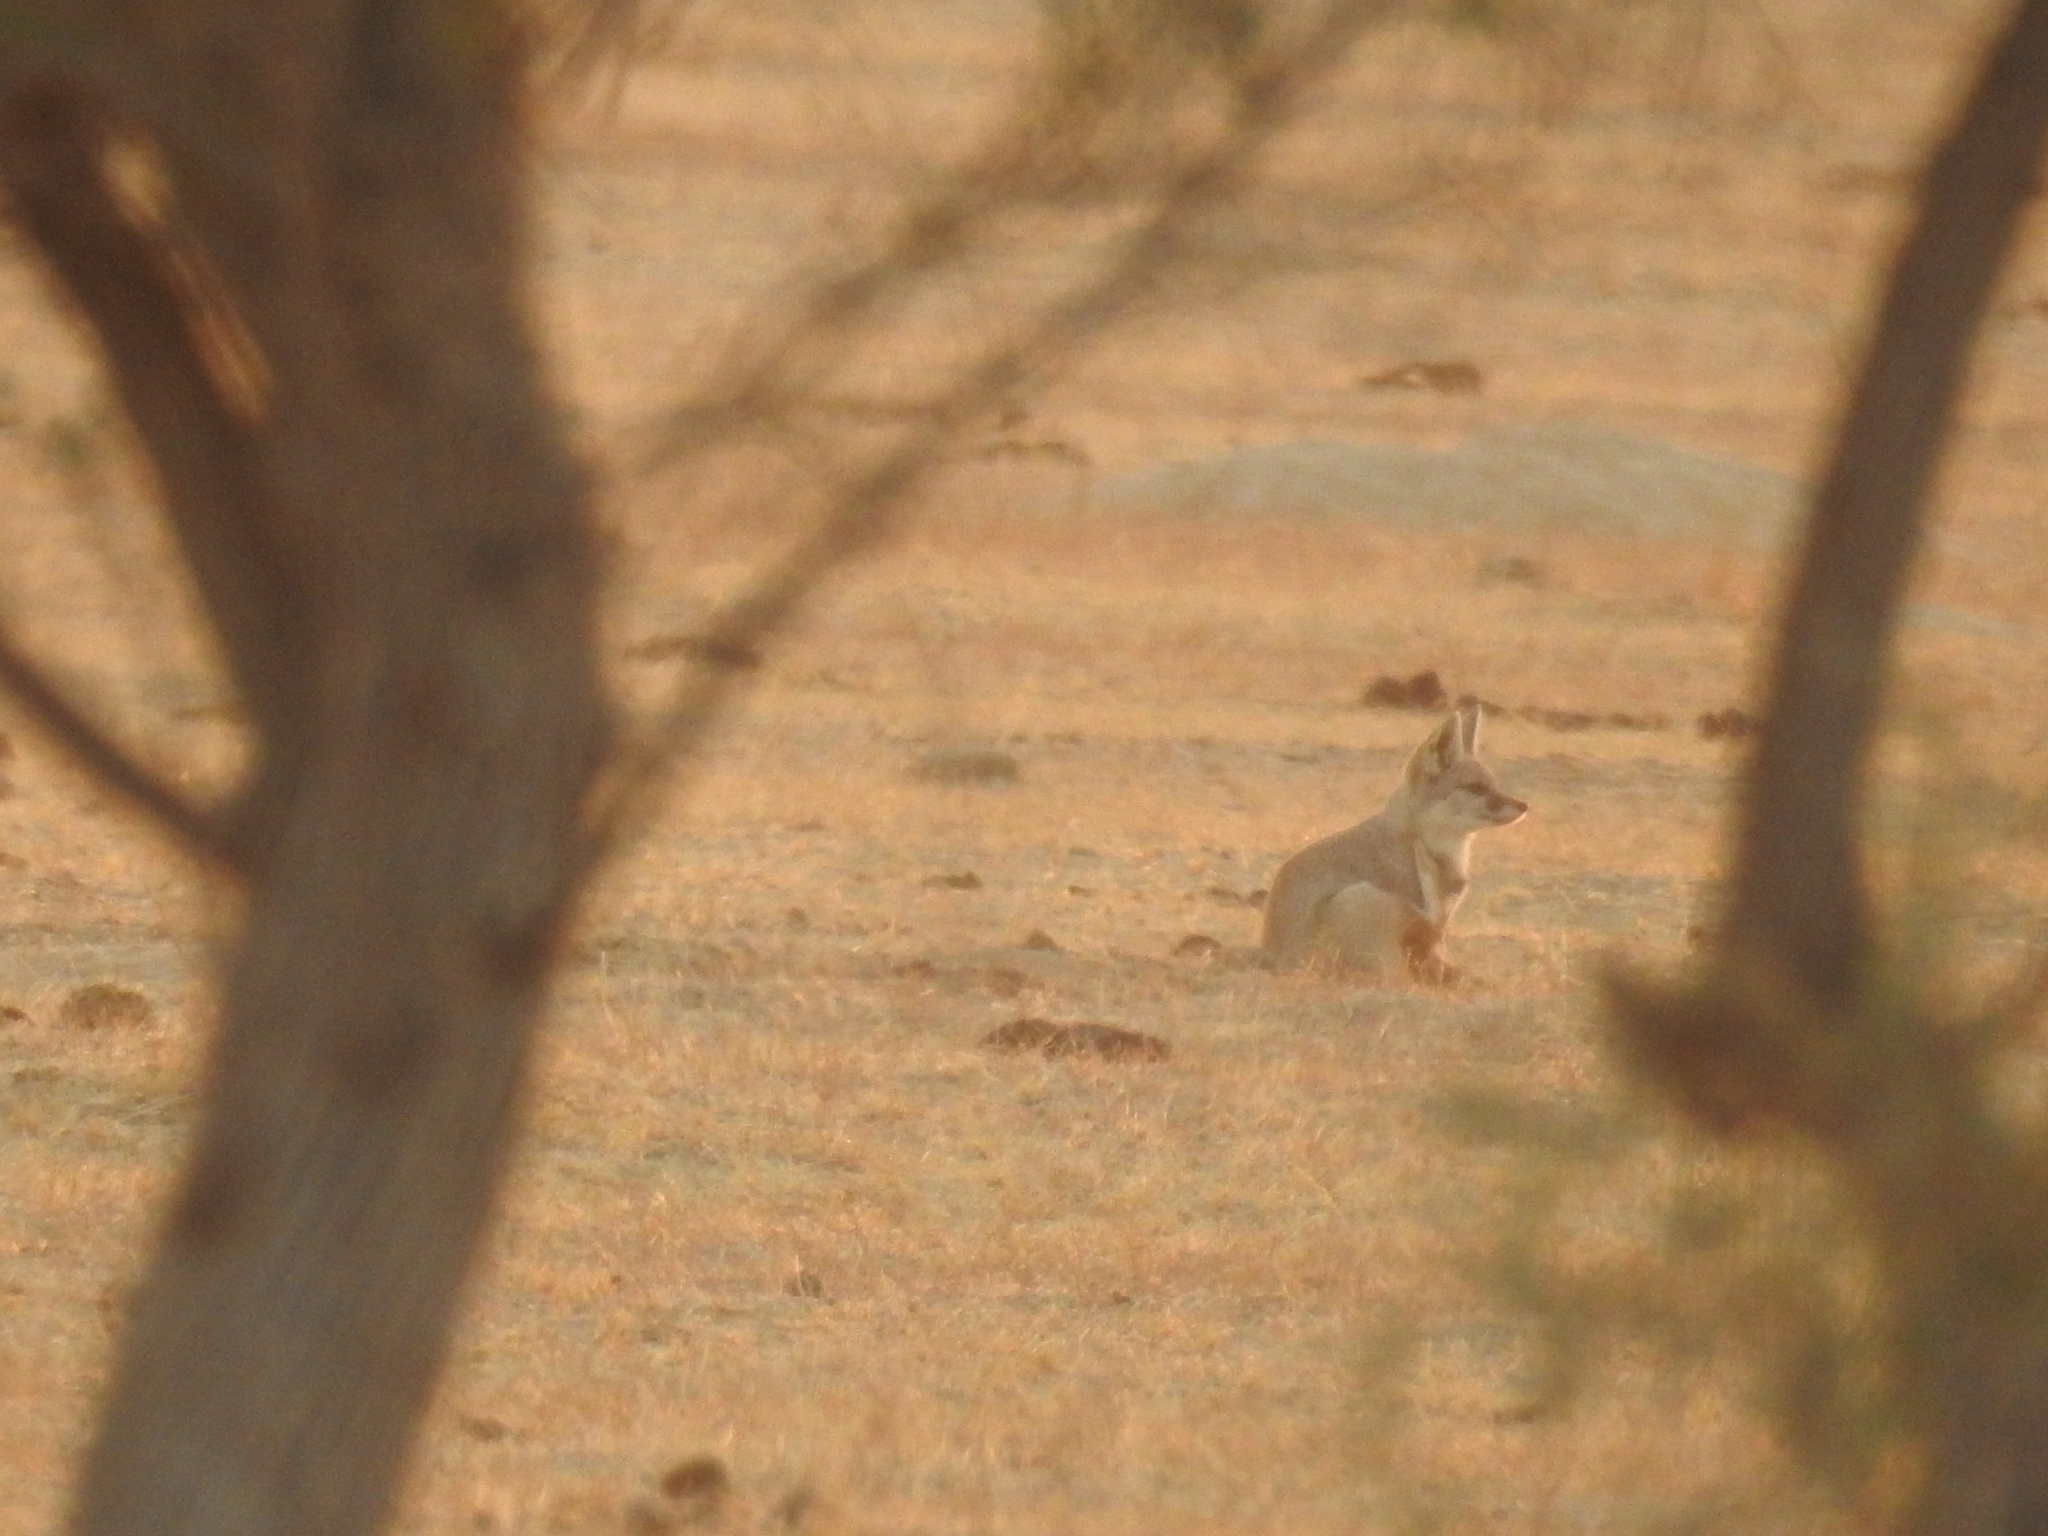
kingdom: Animalia
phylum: Chordata
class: Mammalia
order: Carnivora
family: Canidae
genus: Vulpes
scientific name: Vulpes vulpes
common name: Red fox
